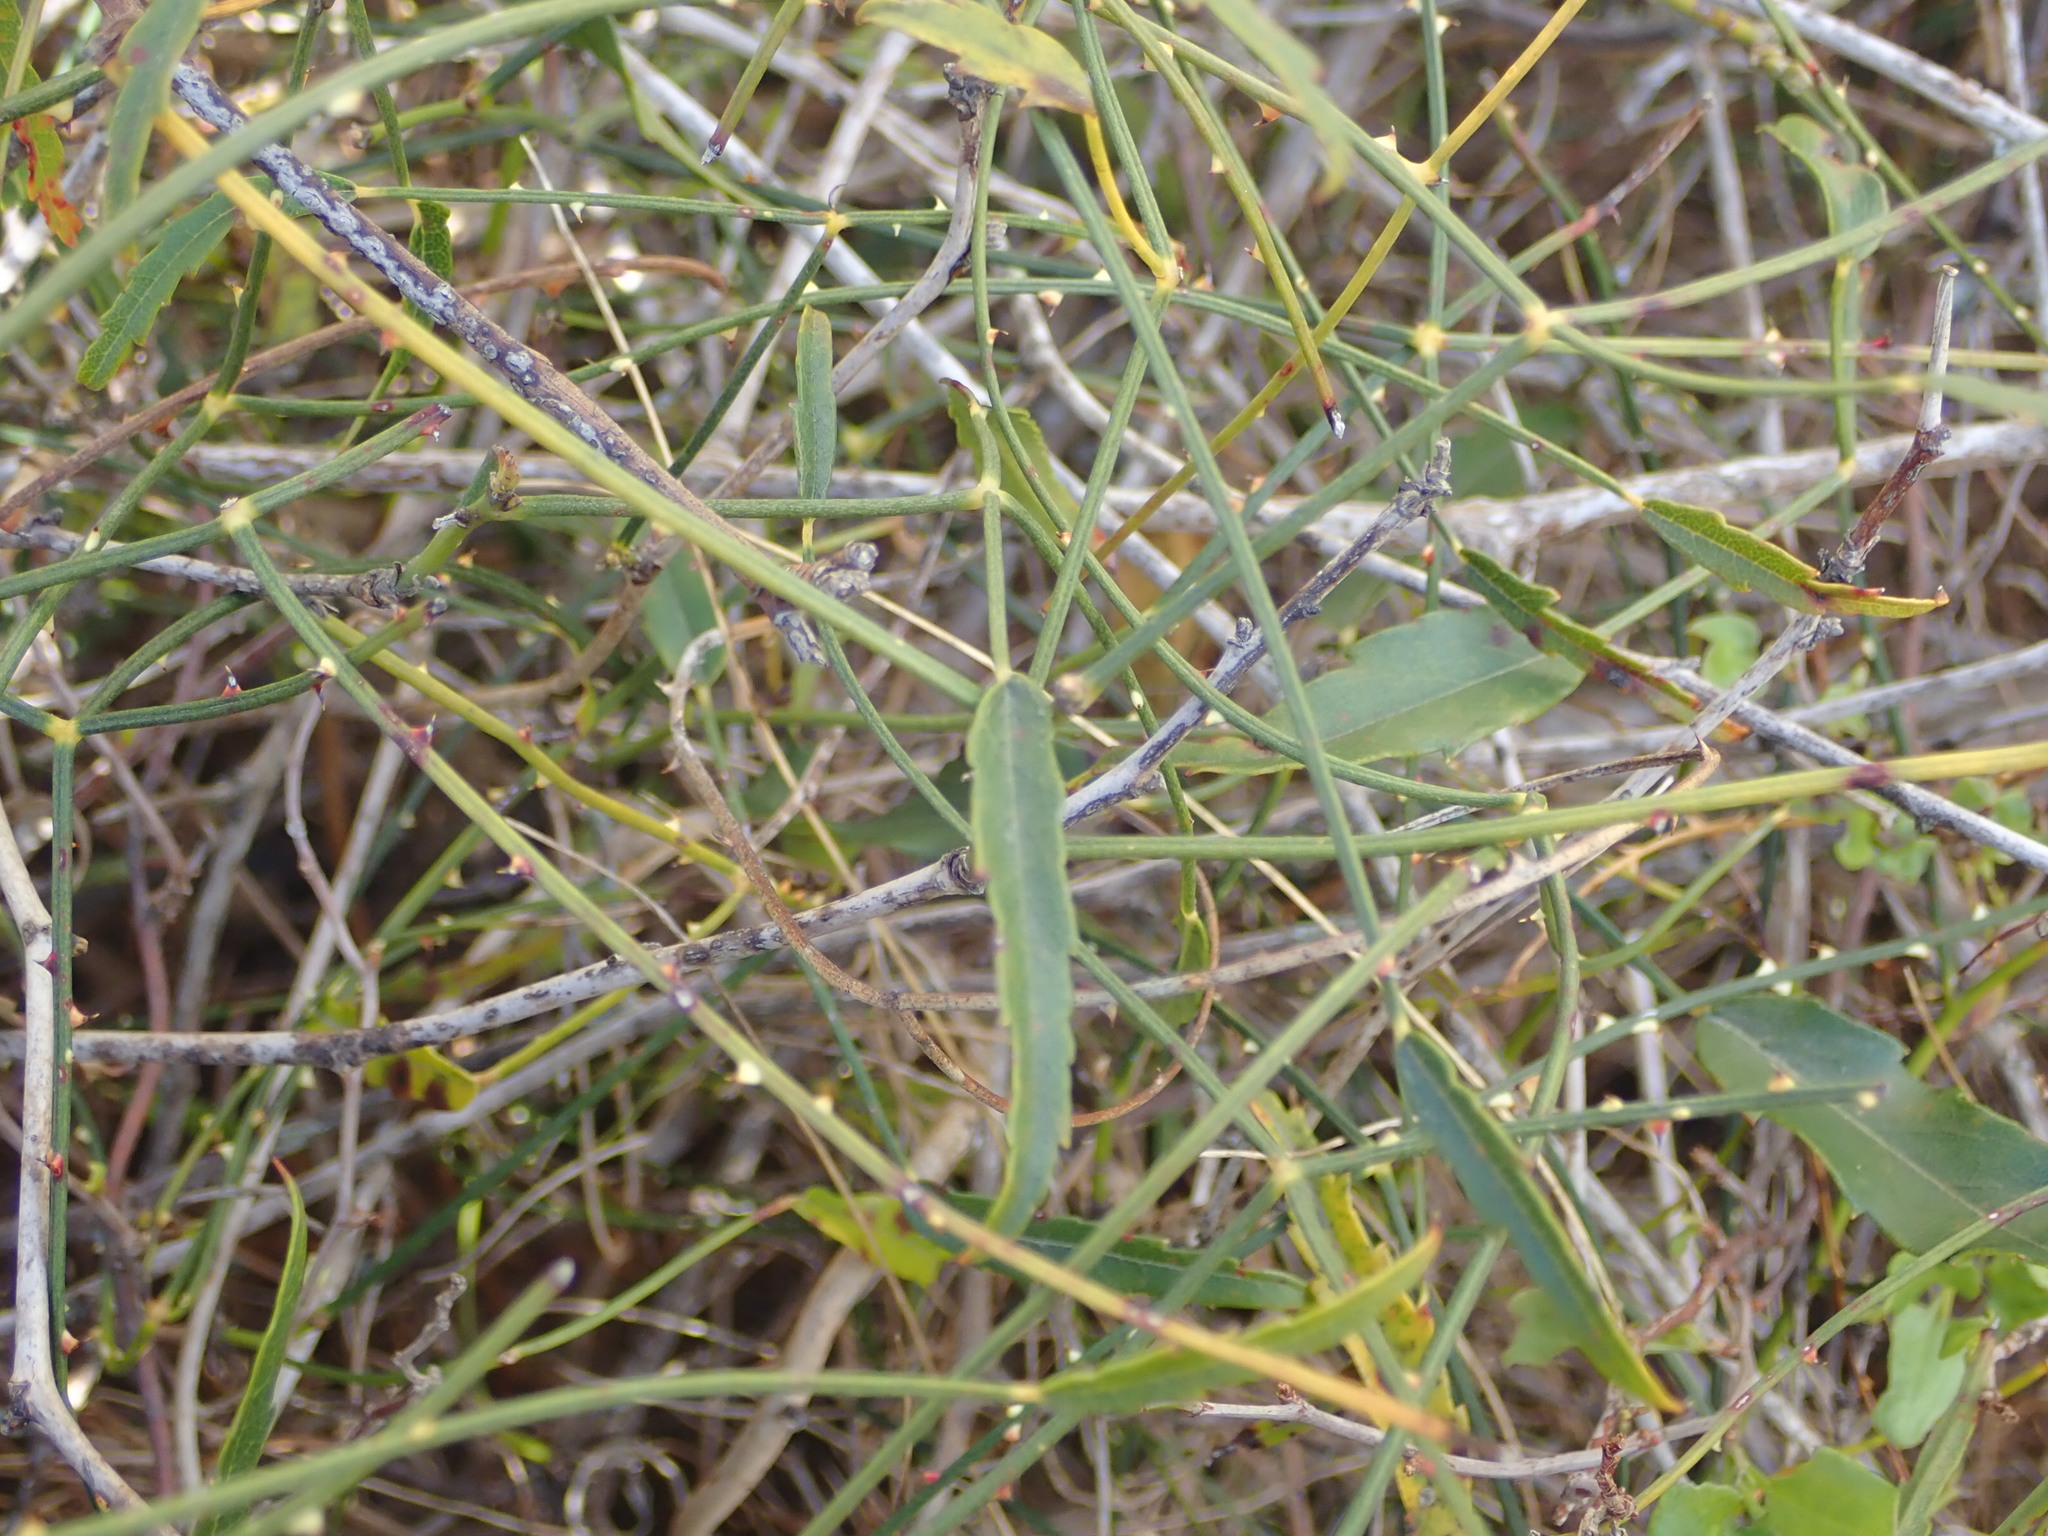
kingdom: Plantae
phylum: Tracheophyta
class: Magnoliopsida
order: Rosales
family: Rosaceae
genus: Rubus
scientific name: Rubus squarrosus
